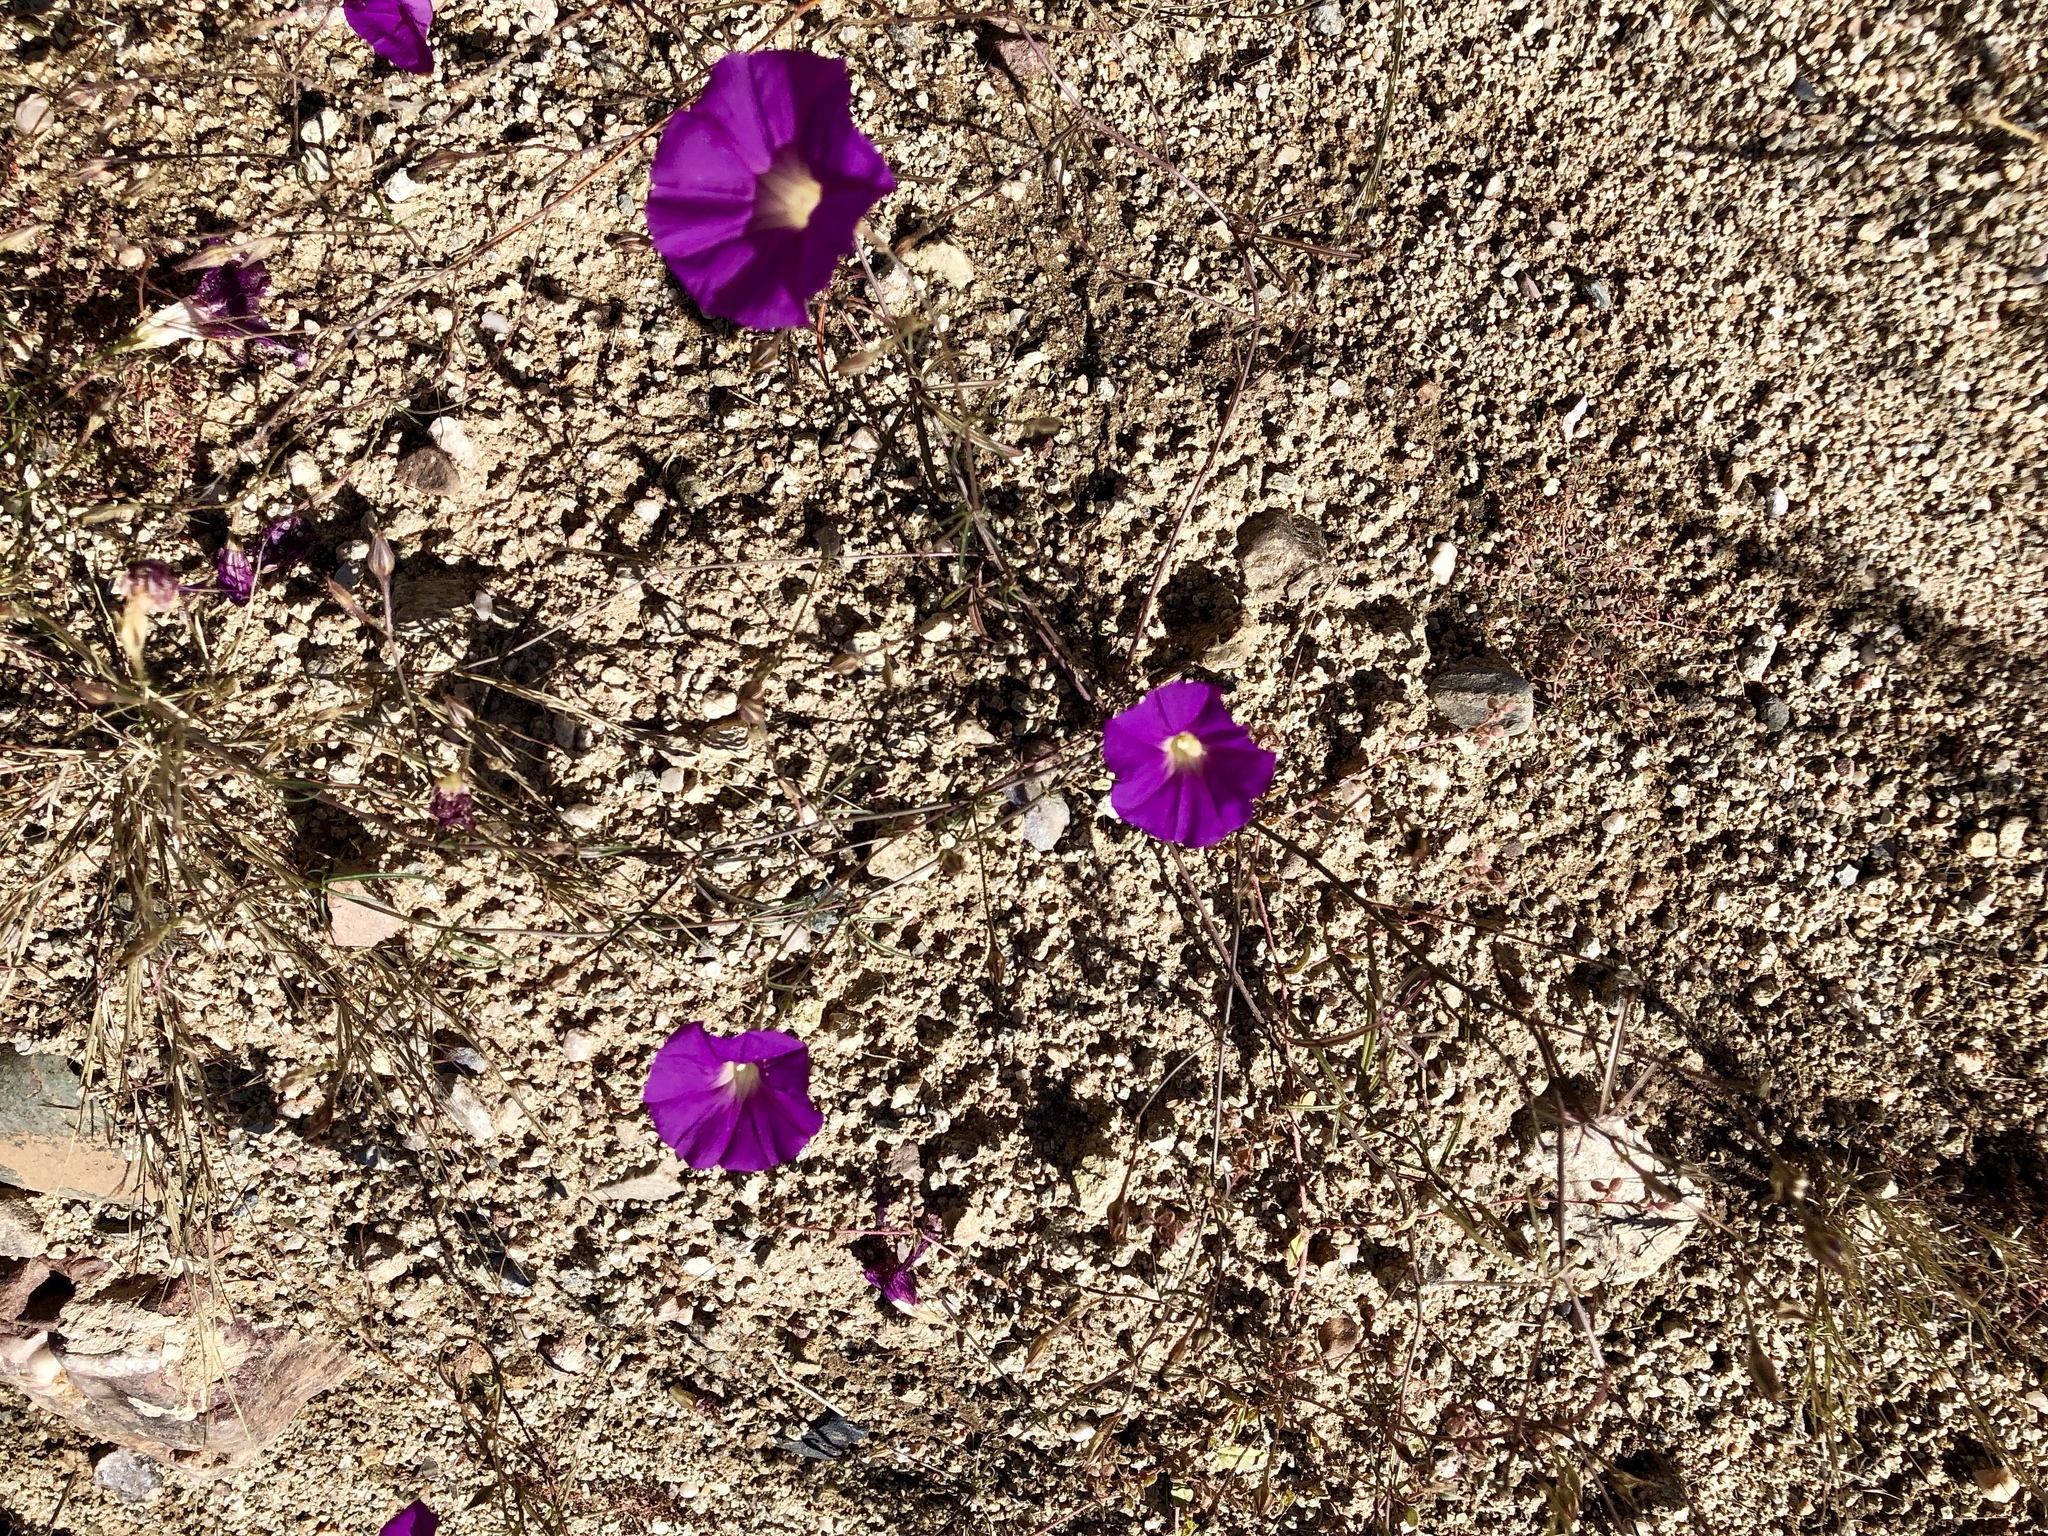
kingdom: Plantae
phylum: Tracheophyta
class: Magnoliopsida
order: Solanales
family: Convolvulaceae
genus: Ipomoea
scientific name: Ipomoea ternifolia
